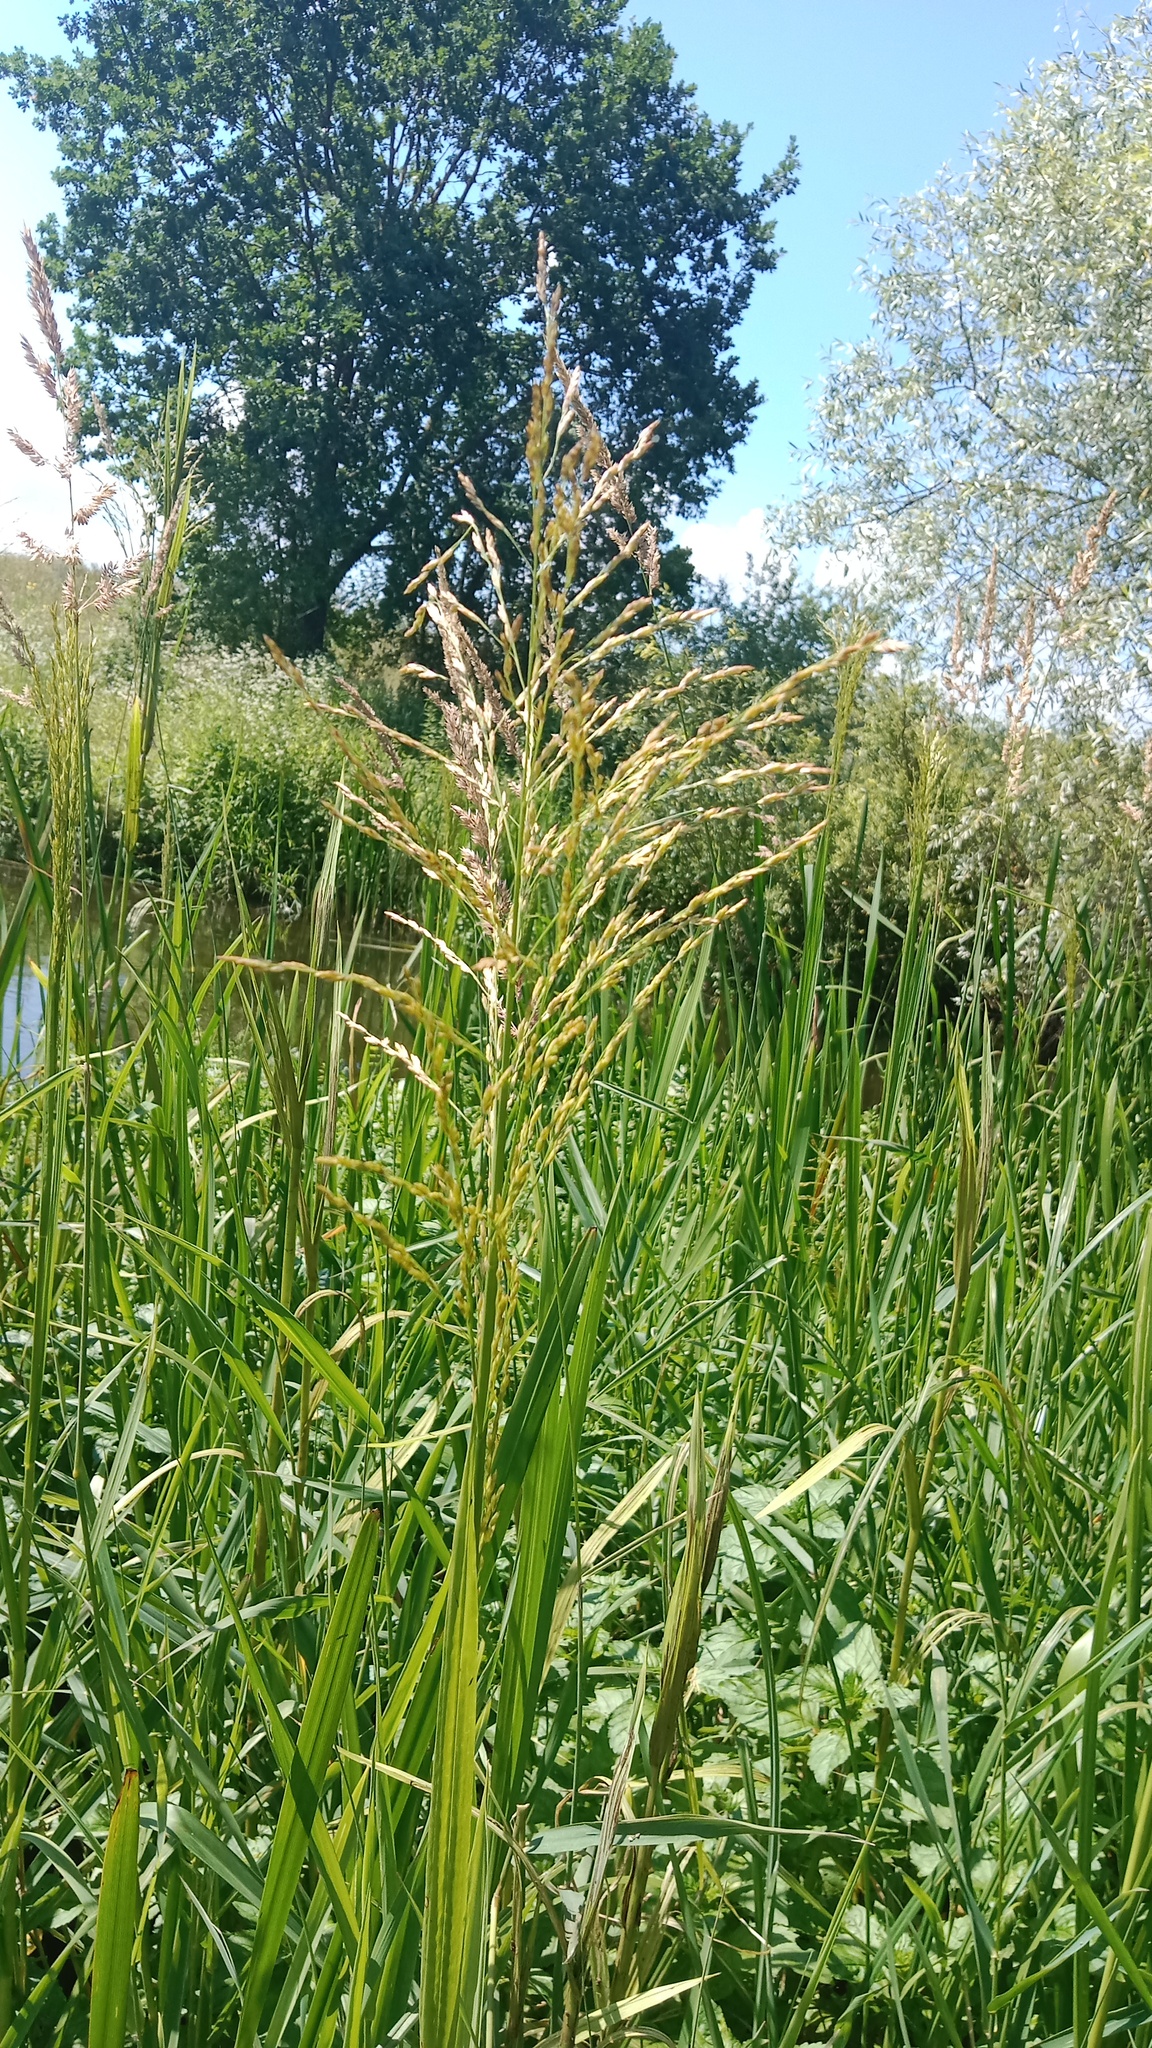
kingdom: Plantae
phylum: Tracheophyta
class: Liliopsida
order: Poales
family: Poaceae
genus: Glyceria
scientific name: Glyceria maxima
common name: Reed mannagrass
